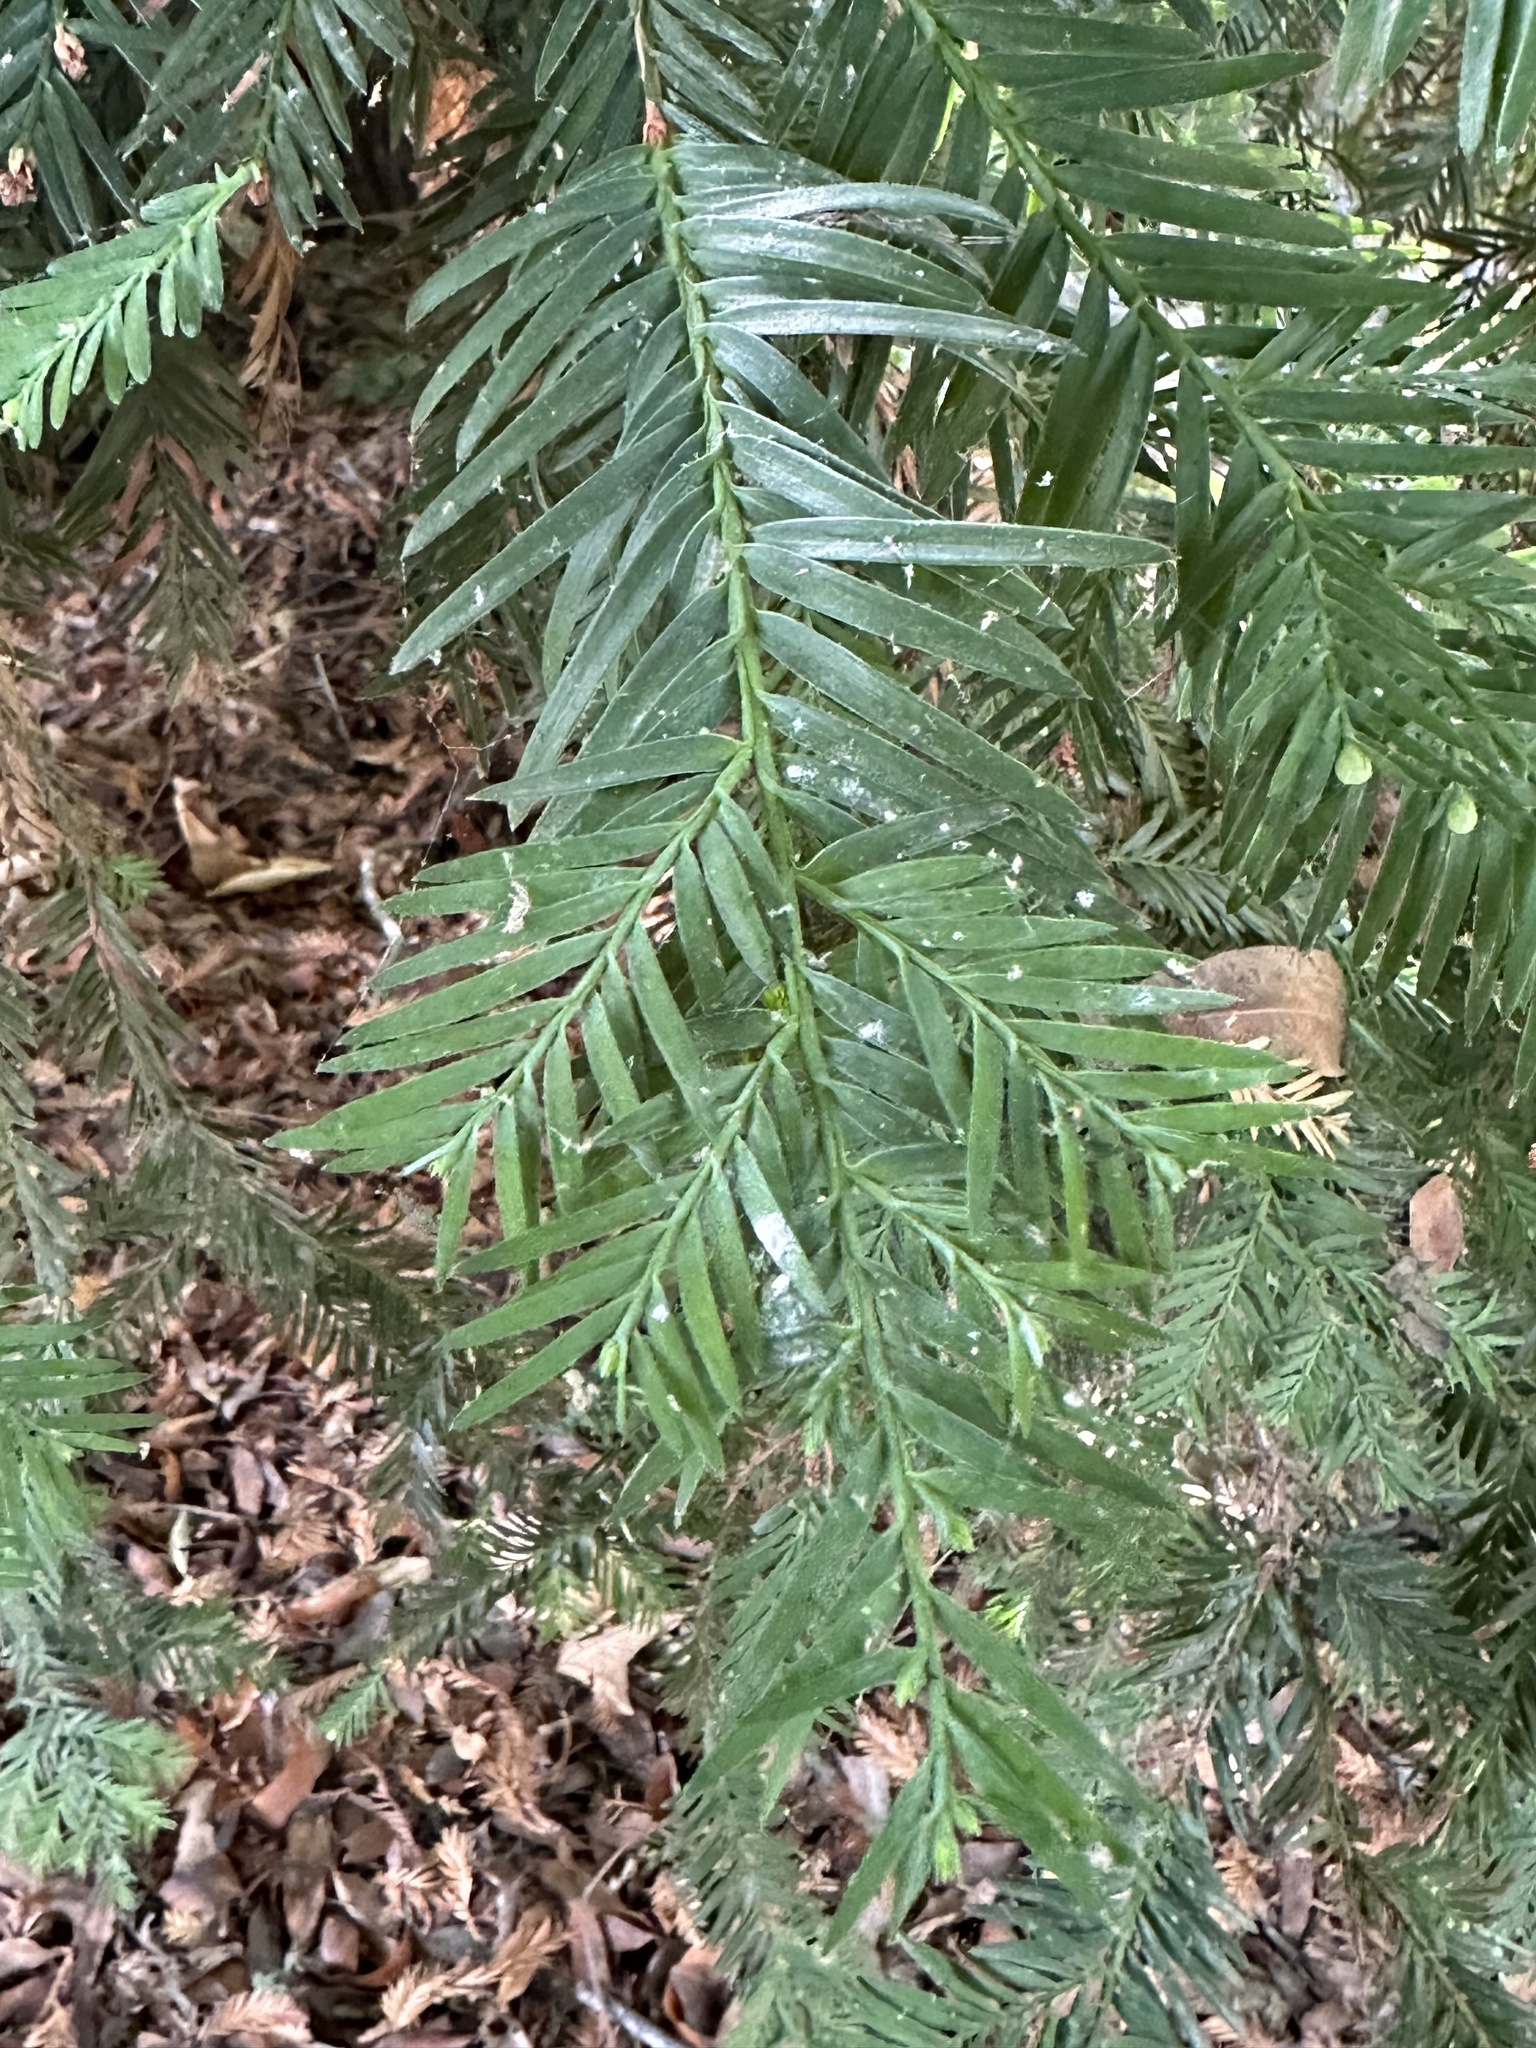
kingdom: Plantae
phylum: Tracheophyta
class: Pinopsida
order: Pinales
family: Cupressaceae
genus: Sequoia
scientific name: Sequoia sempervirens
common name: Coast redwood
